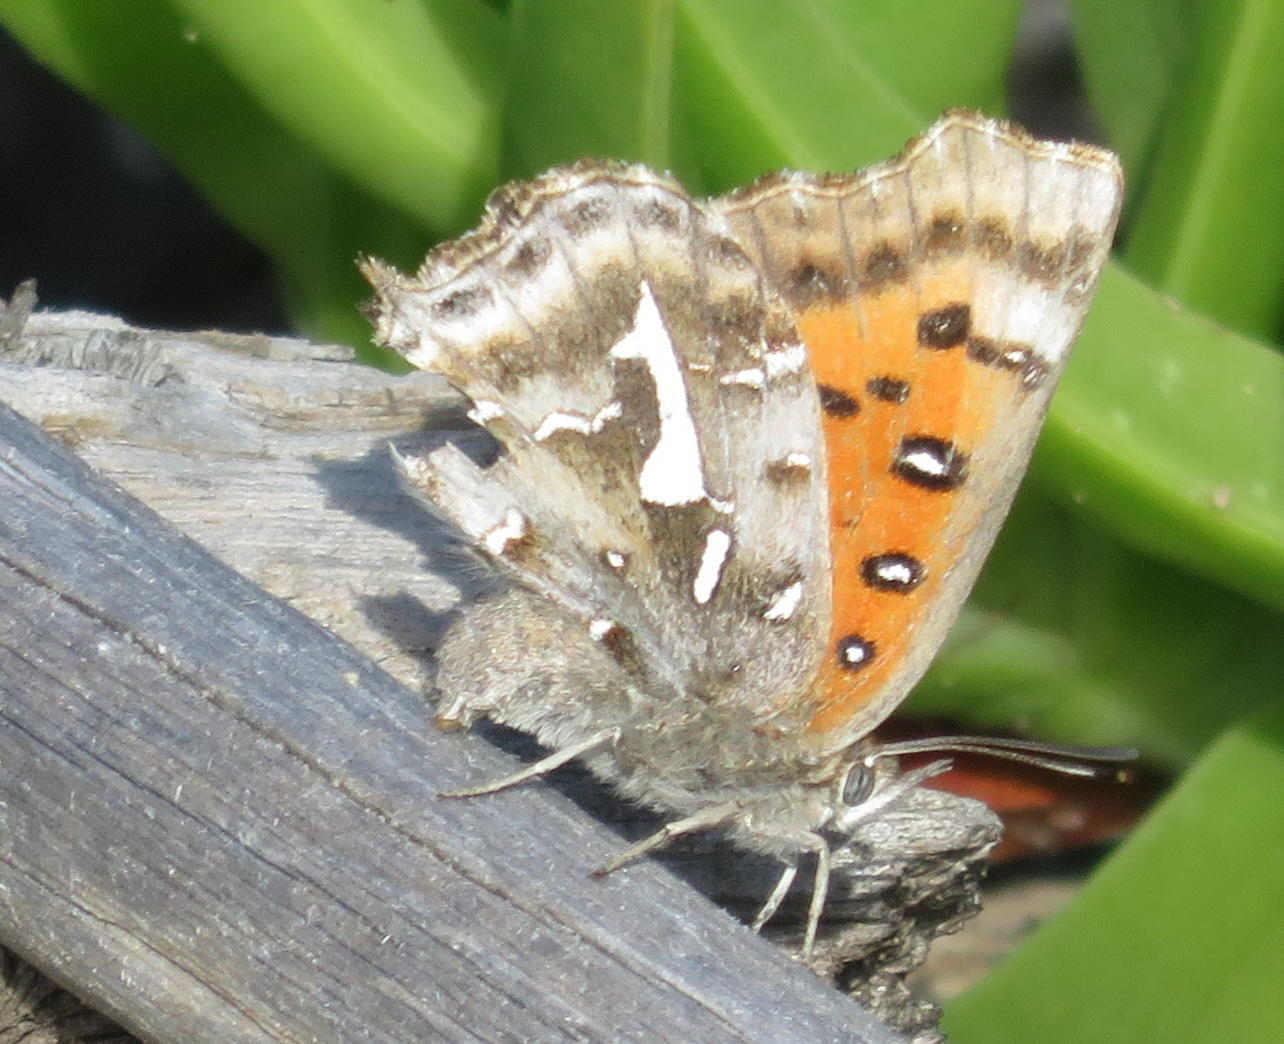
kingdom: Animalia
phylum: Arthropoda
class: Insecta
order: Lepidoptera
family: Lycaenidae
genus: Phasis
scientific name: Phasis thero
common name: Silver arrowhead
